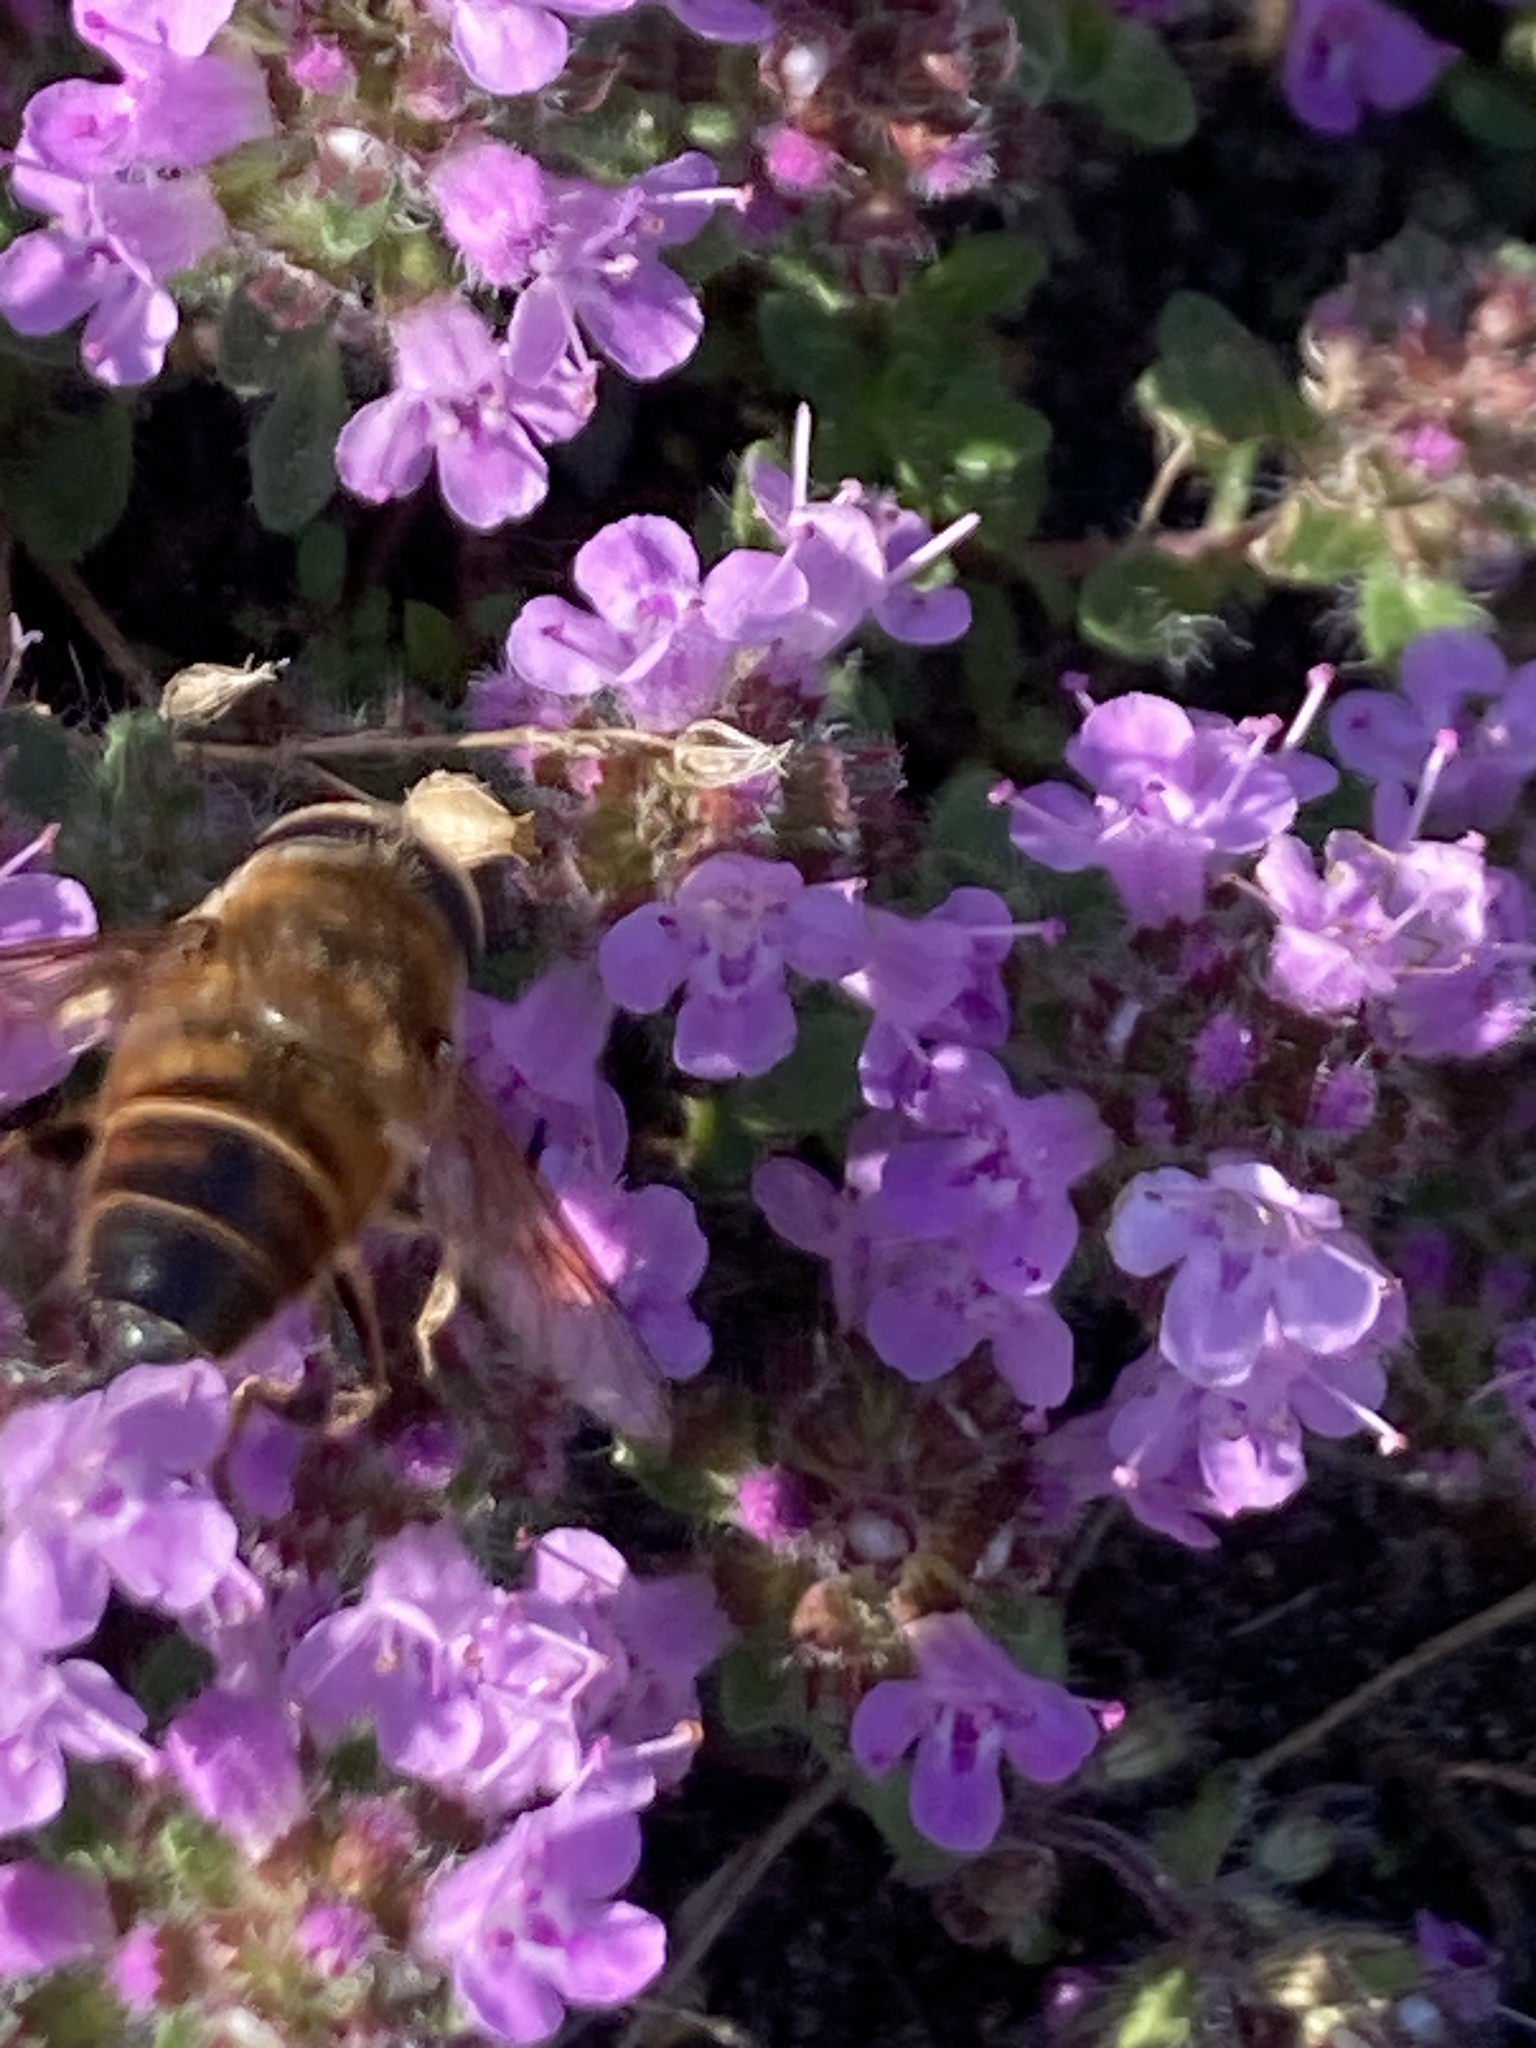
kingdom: Animalia
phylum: Arthropoda
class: Insecta
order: Diptera
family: Syrphidae
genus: Eristalis
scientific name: Eristalis tenax
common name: Drone fly
